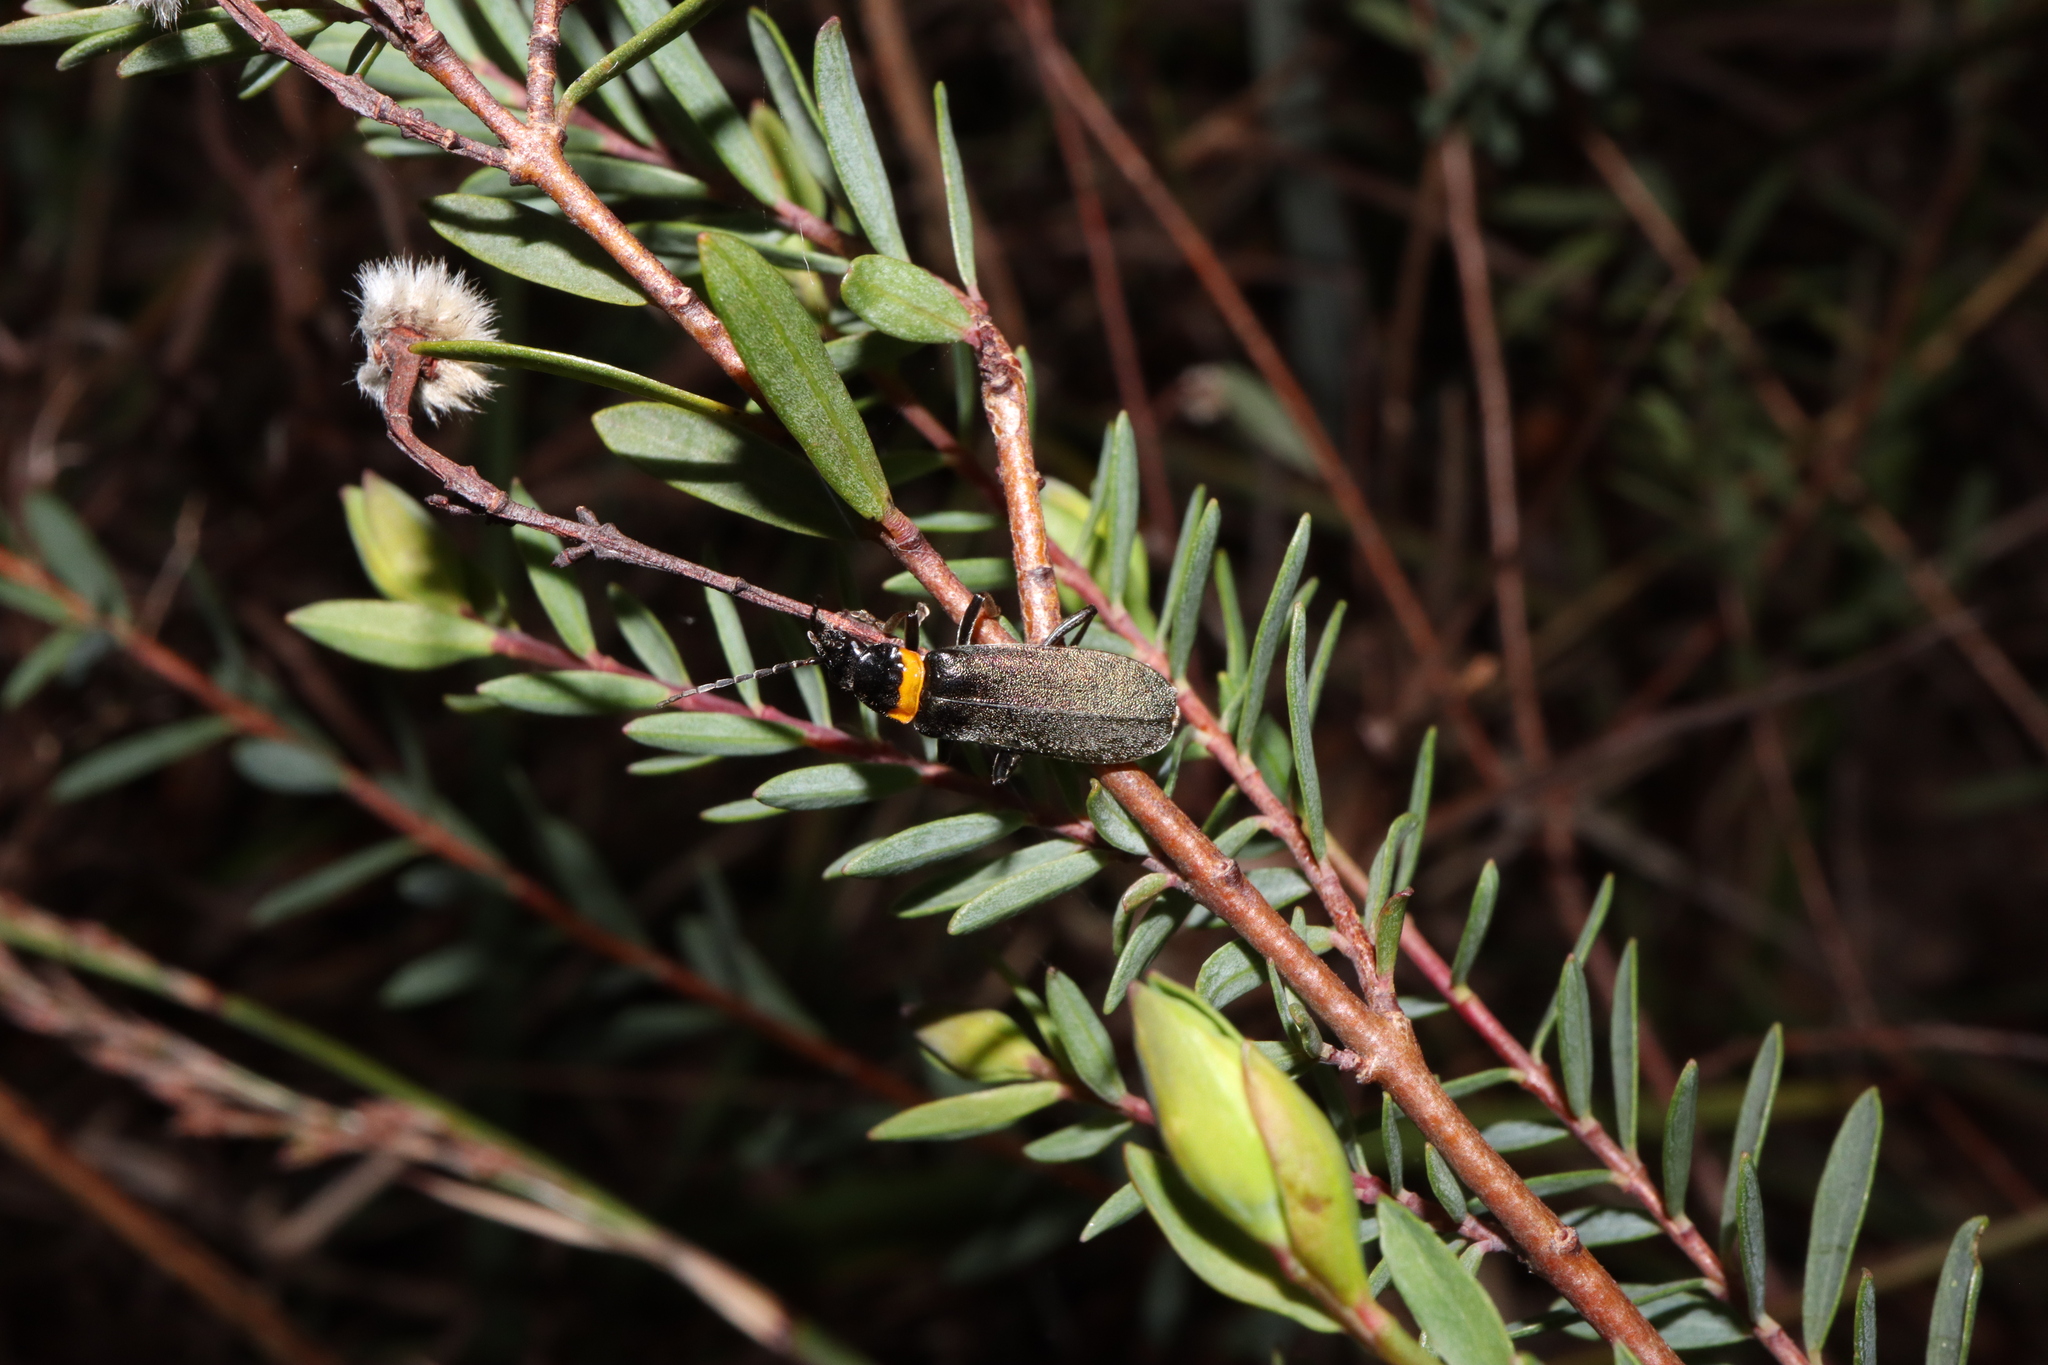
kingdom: Animalia
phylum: Arthropoda
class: Insecta
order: Coleoptera
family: Cantharidae
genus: Chauliognathus
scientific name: Chauliognathus
